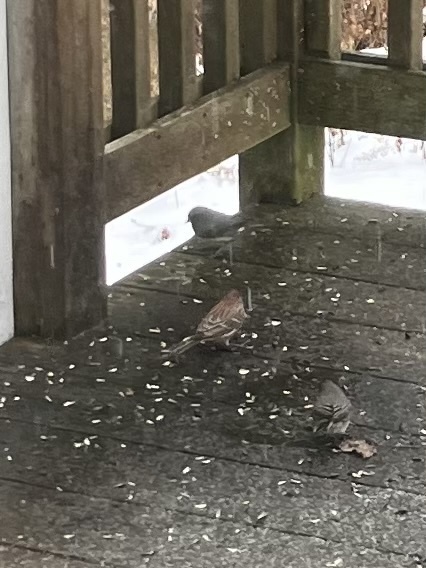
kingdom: Animalia
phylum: Chordata
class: Aves
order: Passeriformes
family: Fringillidae
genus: Haemorhous
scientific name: Haemorhous mexicanus
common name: House finch
